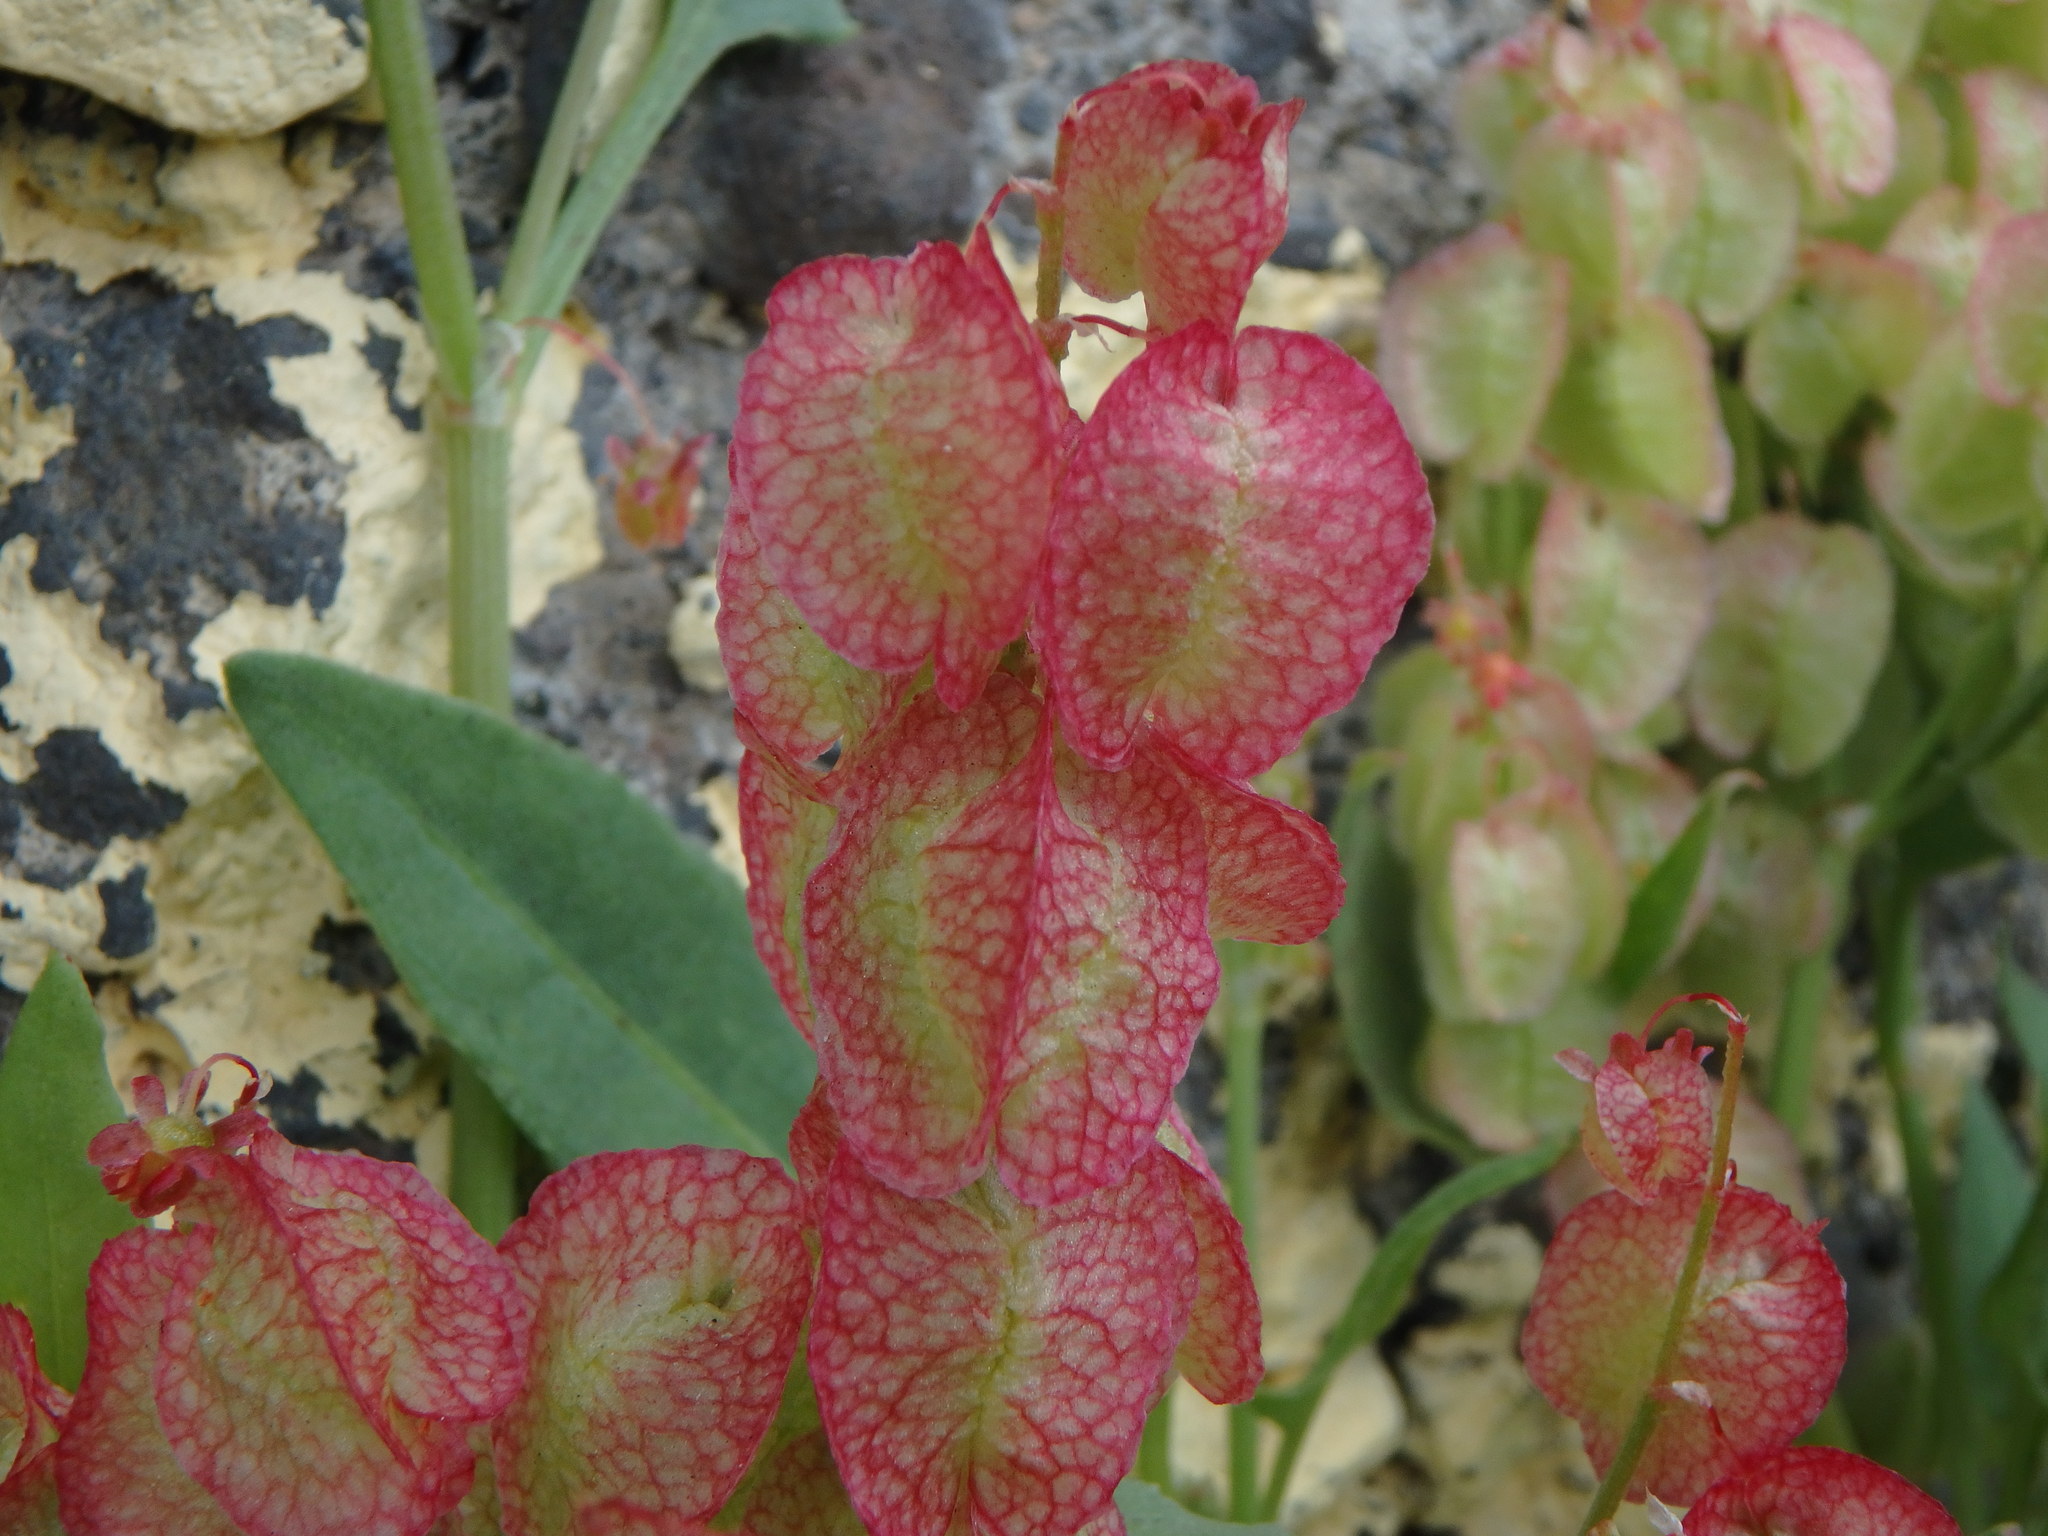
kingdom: Plantae
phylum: Tracheophyta
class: Magnoliopsida
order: Caryophyllales
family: Polygonaceae
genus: Rumex
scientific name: Rumex vesicarius
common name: Bladder dock
